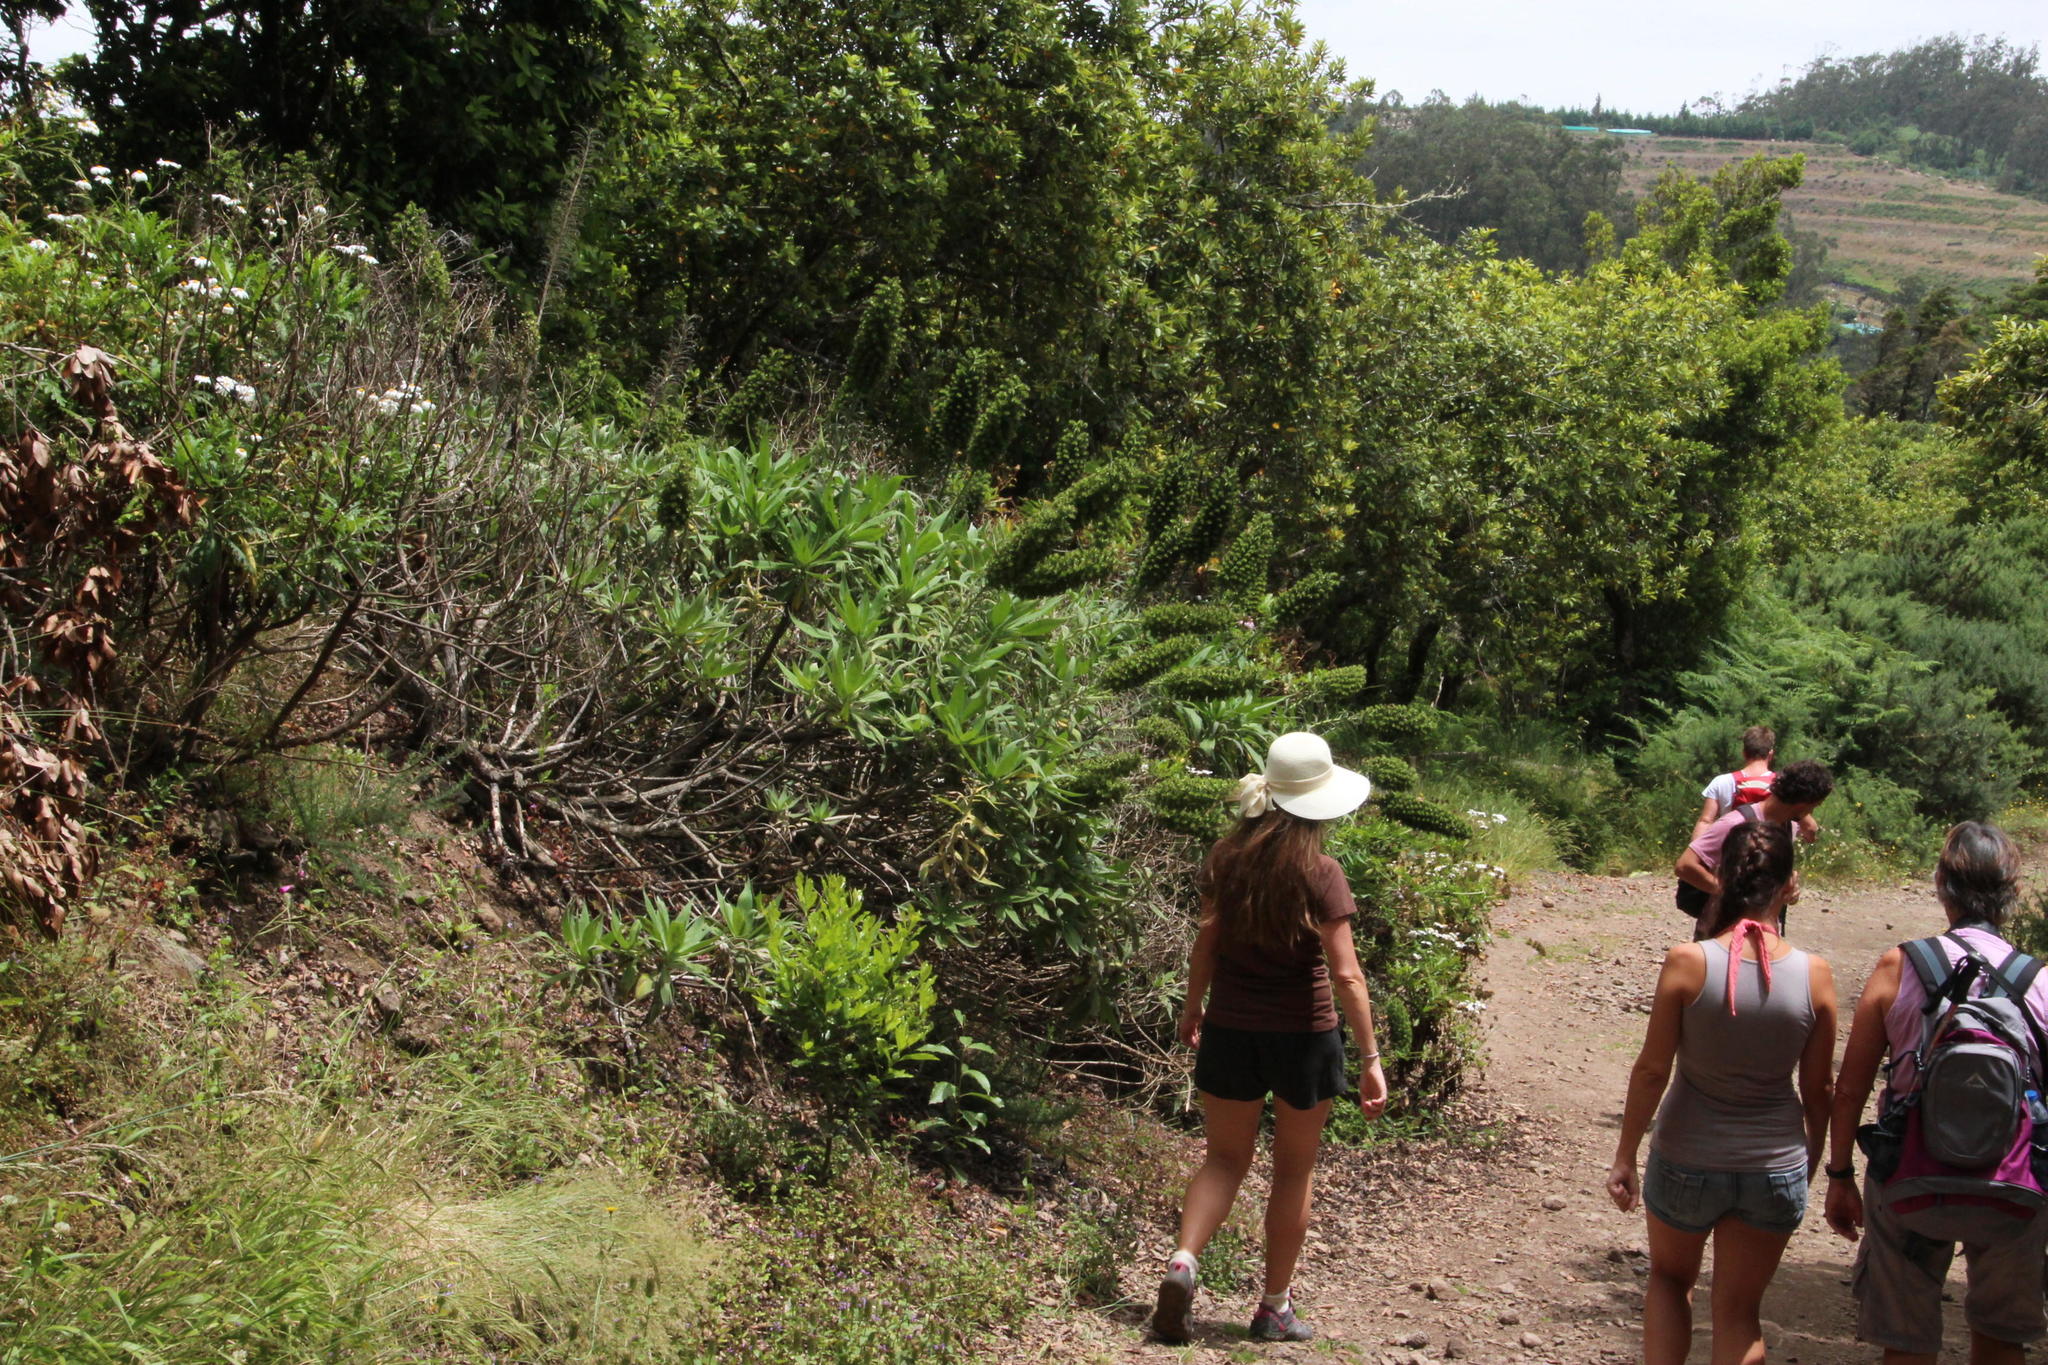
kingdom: Plantae
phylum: Tracheophyta
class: Magnoliopsida
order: Boraginales
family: Boraginaceae
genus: Echium
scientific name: Echium candicans
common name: Pride of madeira
